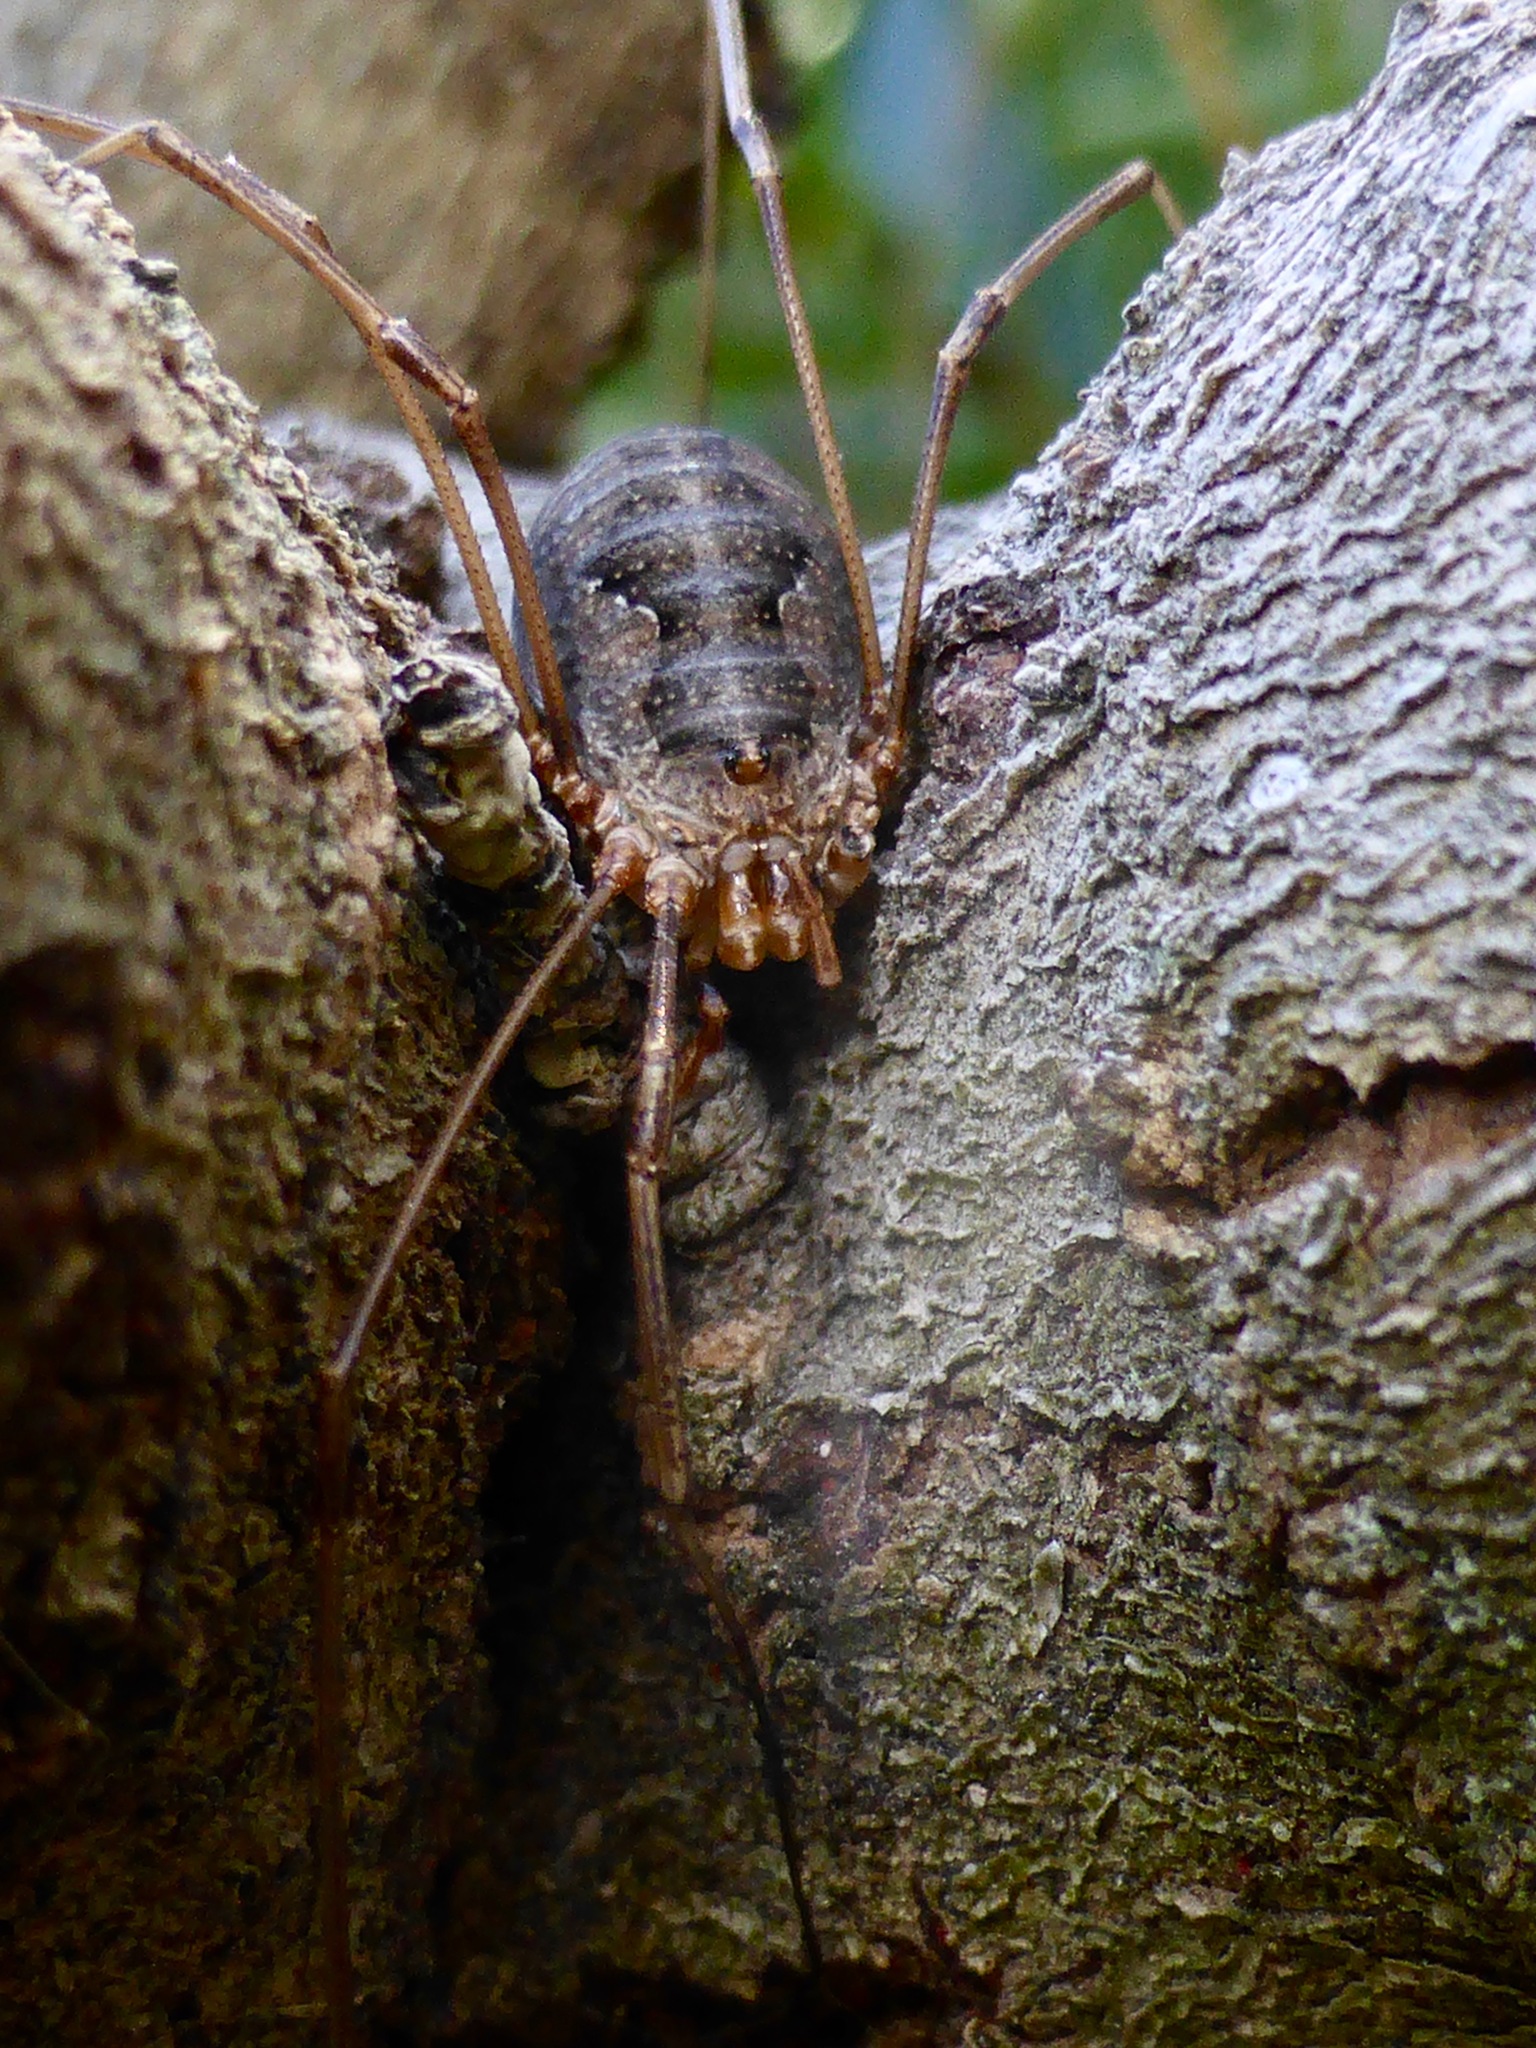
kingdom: Animalia
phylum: Arthropoda
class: Arachnida
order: Opiliones
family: Phalangiidae
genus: Phalangium
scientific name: Phalangium opilio
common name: Daddy longleg
